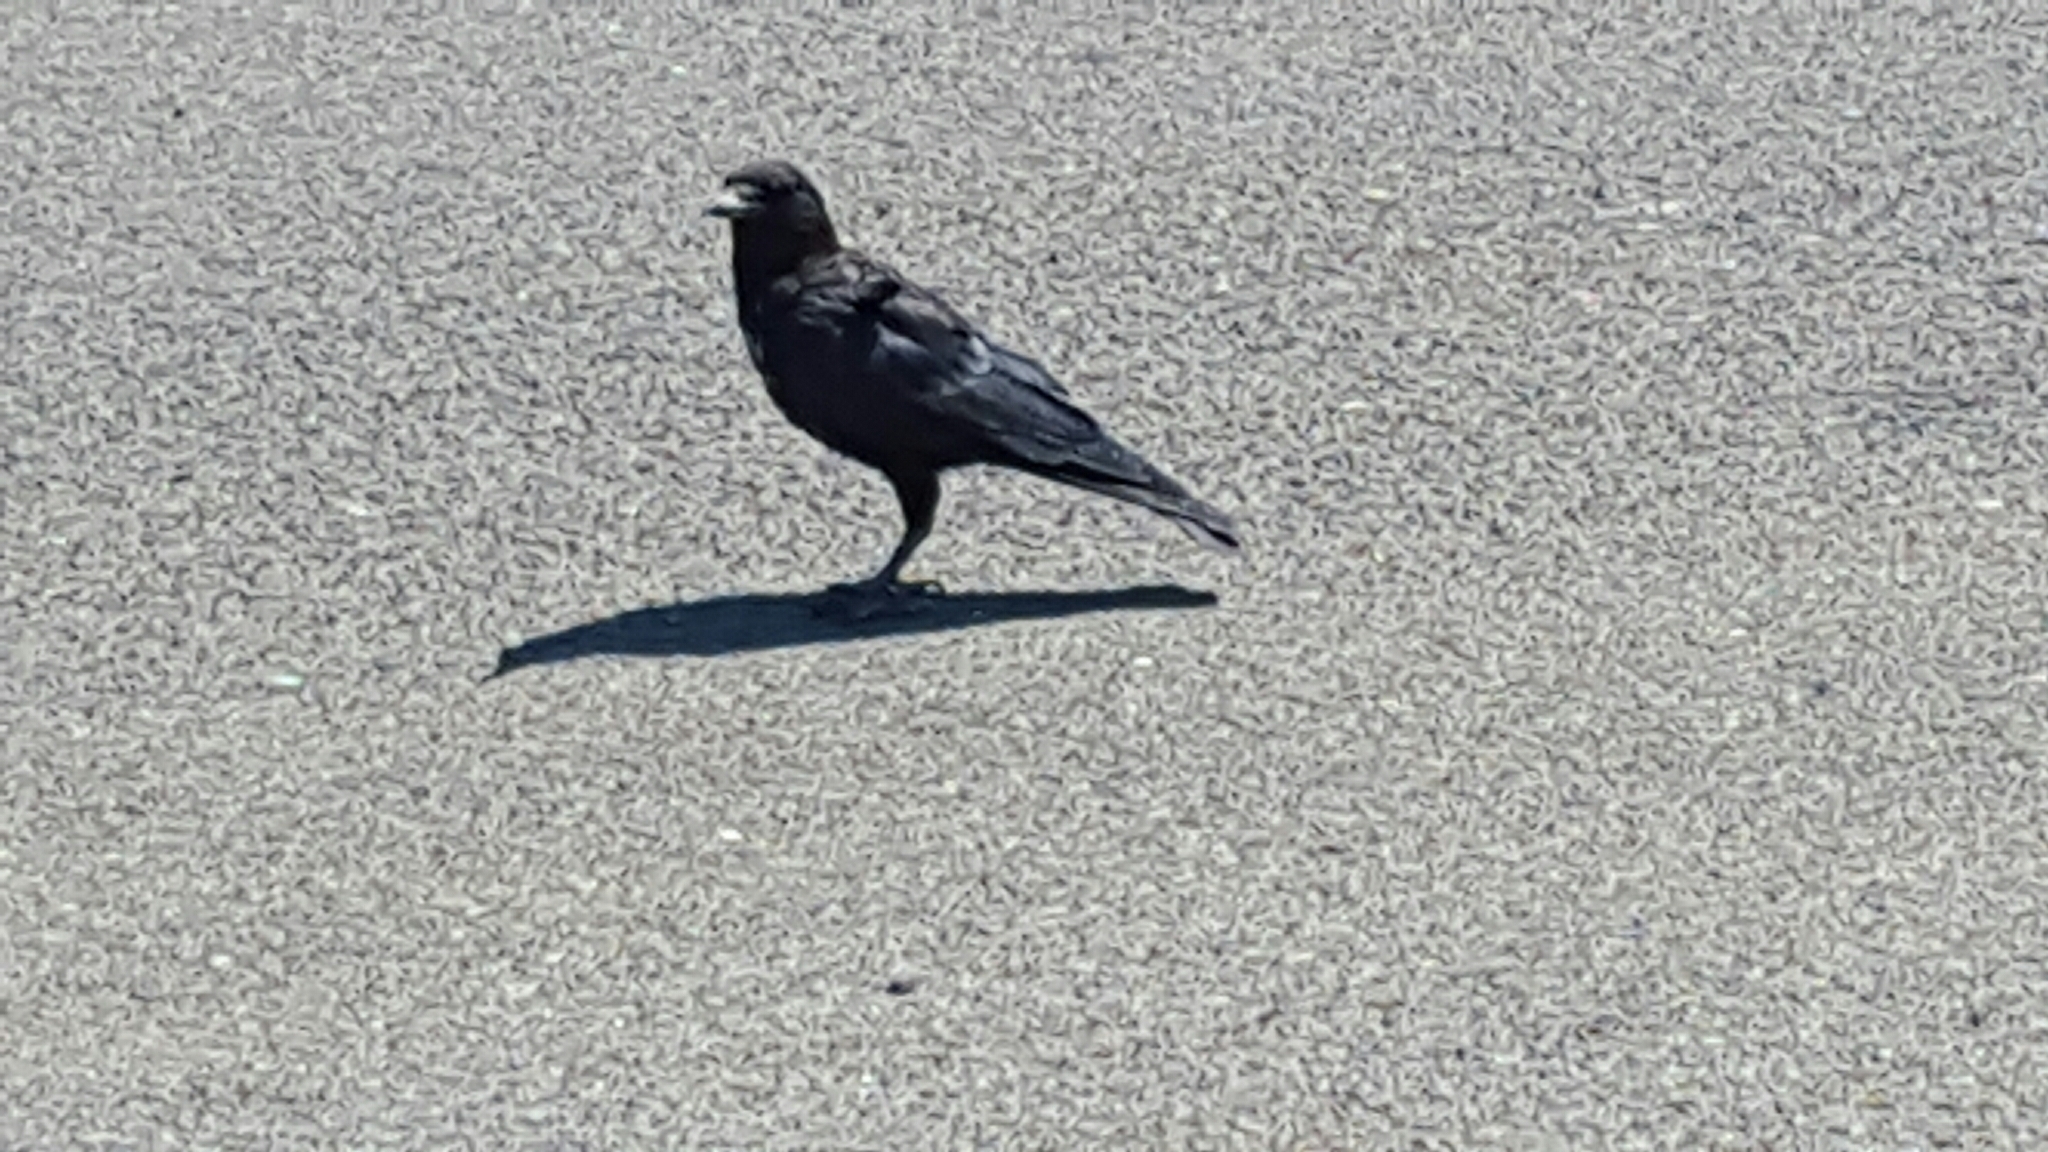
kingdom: Animalia
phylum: Chordata
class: Aves
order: Passeriformes
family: Corvidae
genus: Corvus
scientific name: Corvus brachyrhynchos
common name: American crow
